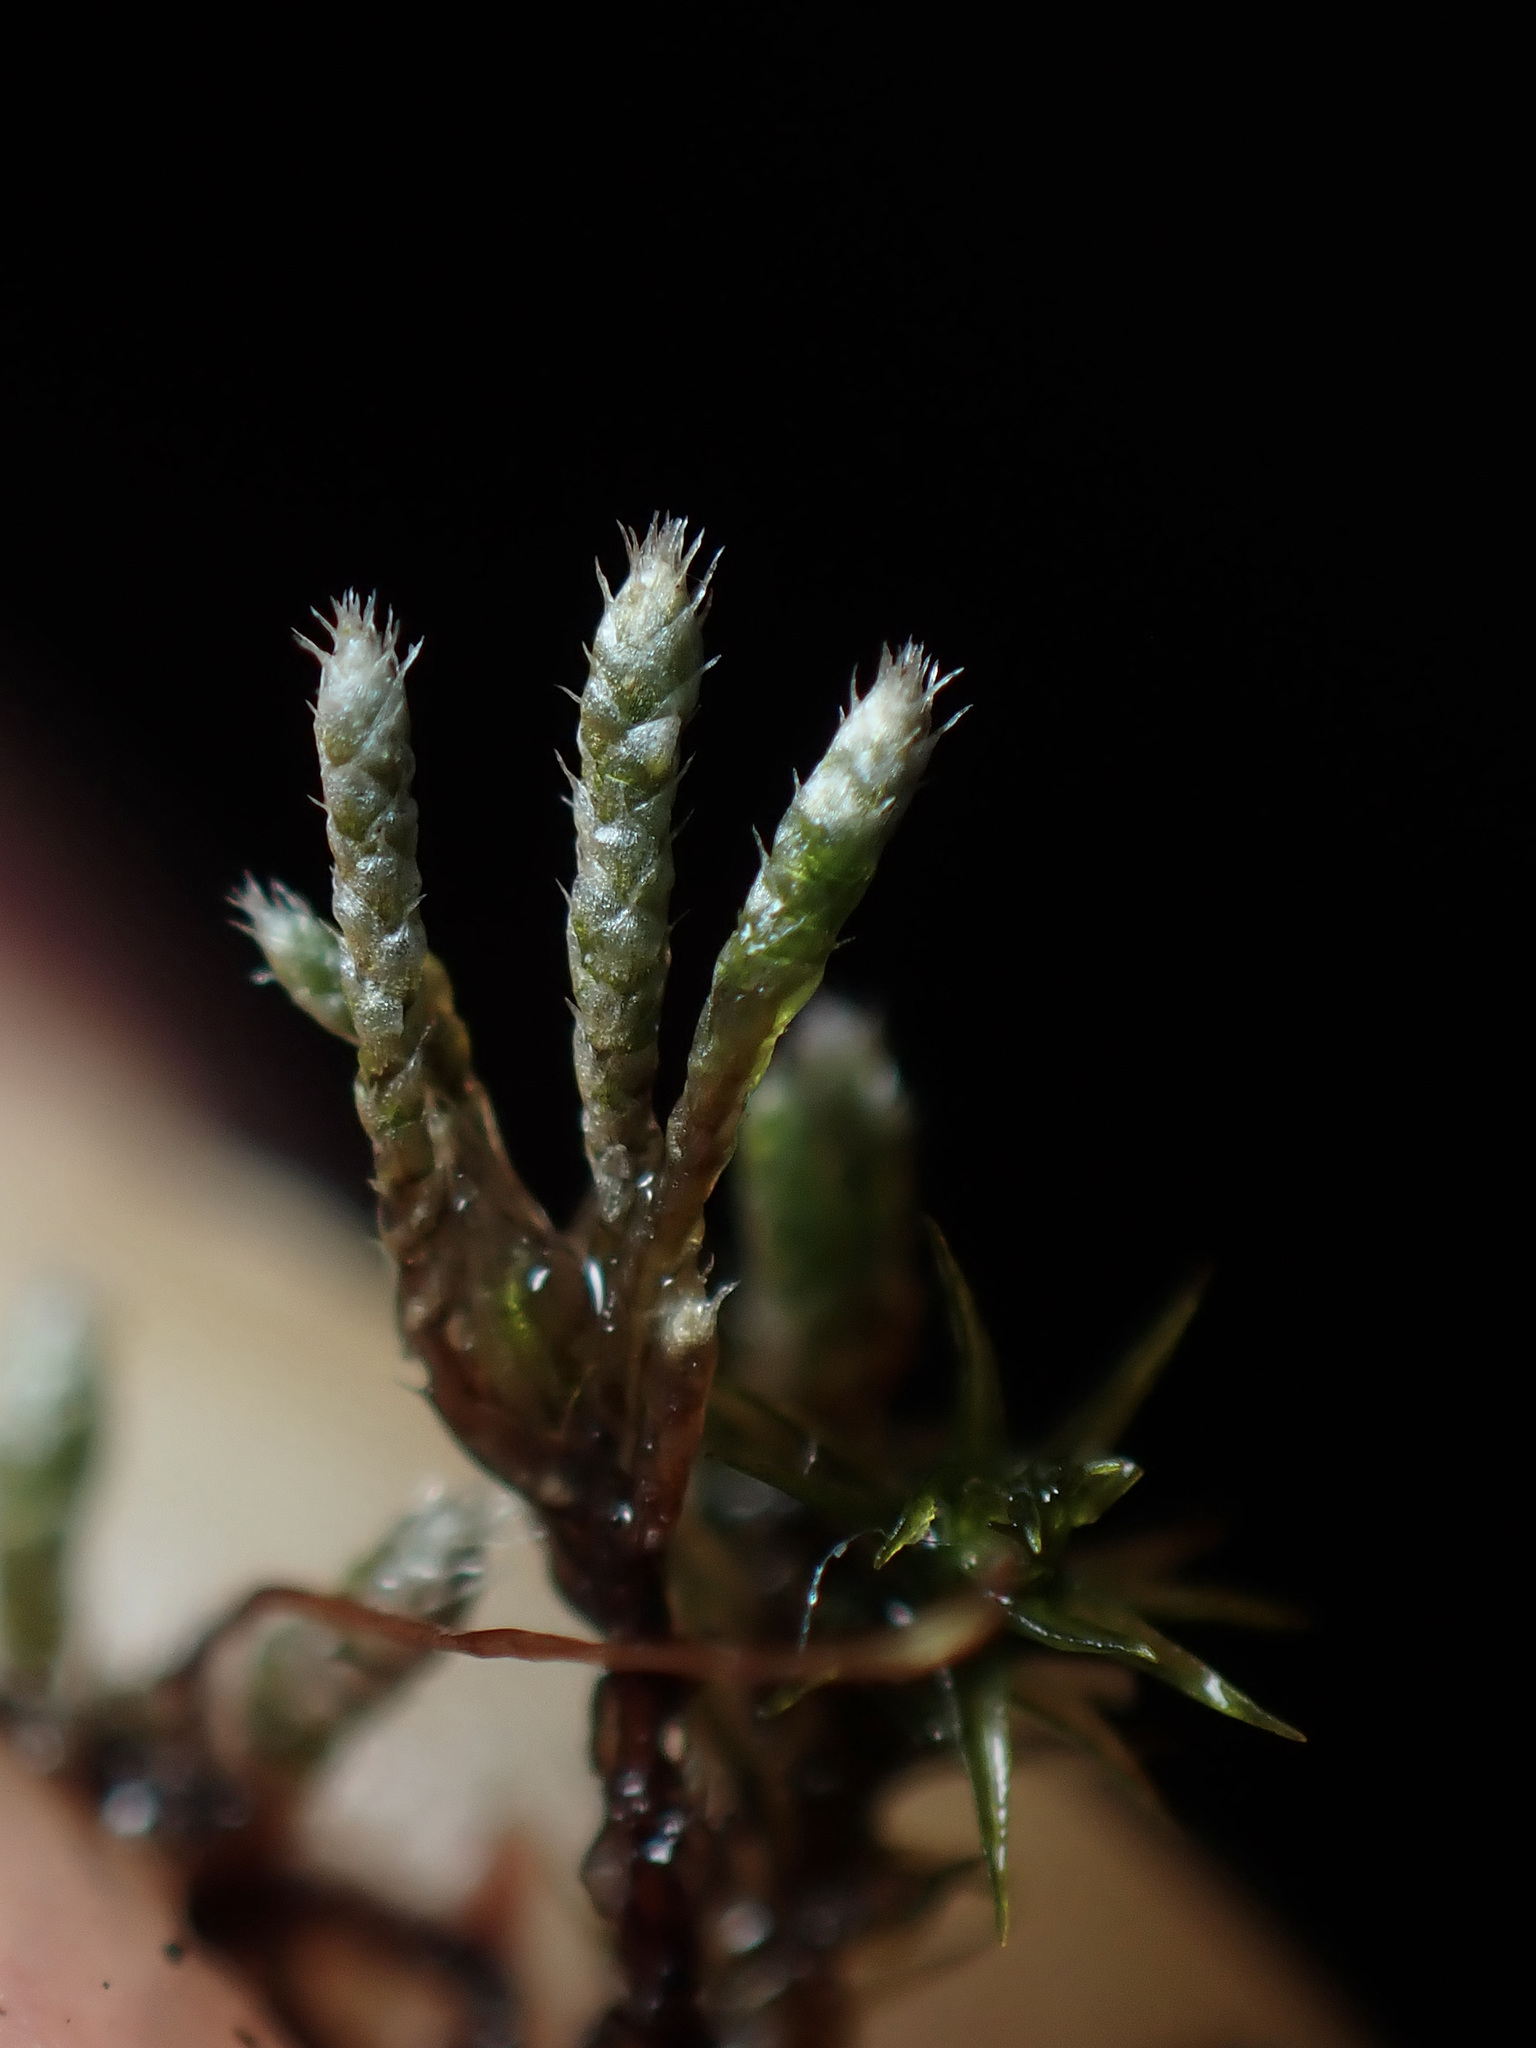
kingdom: Plantae
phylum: Bryophyta
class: Bryopsida
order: Bryales
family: Bryaceae
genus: Bryum
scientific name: Bryum argenteum
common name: Silver-moss
